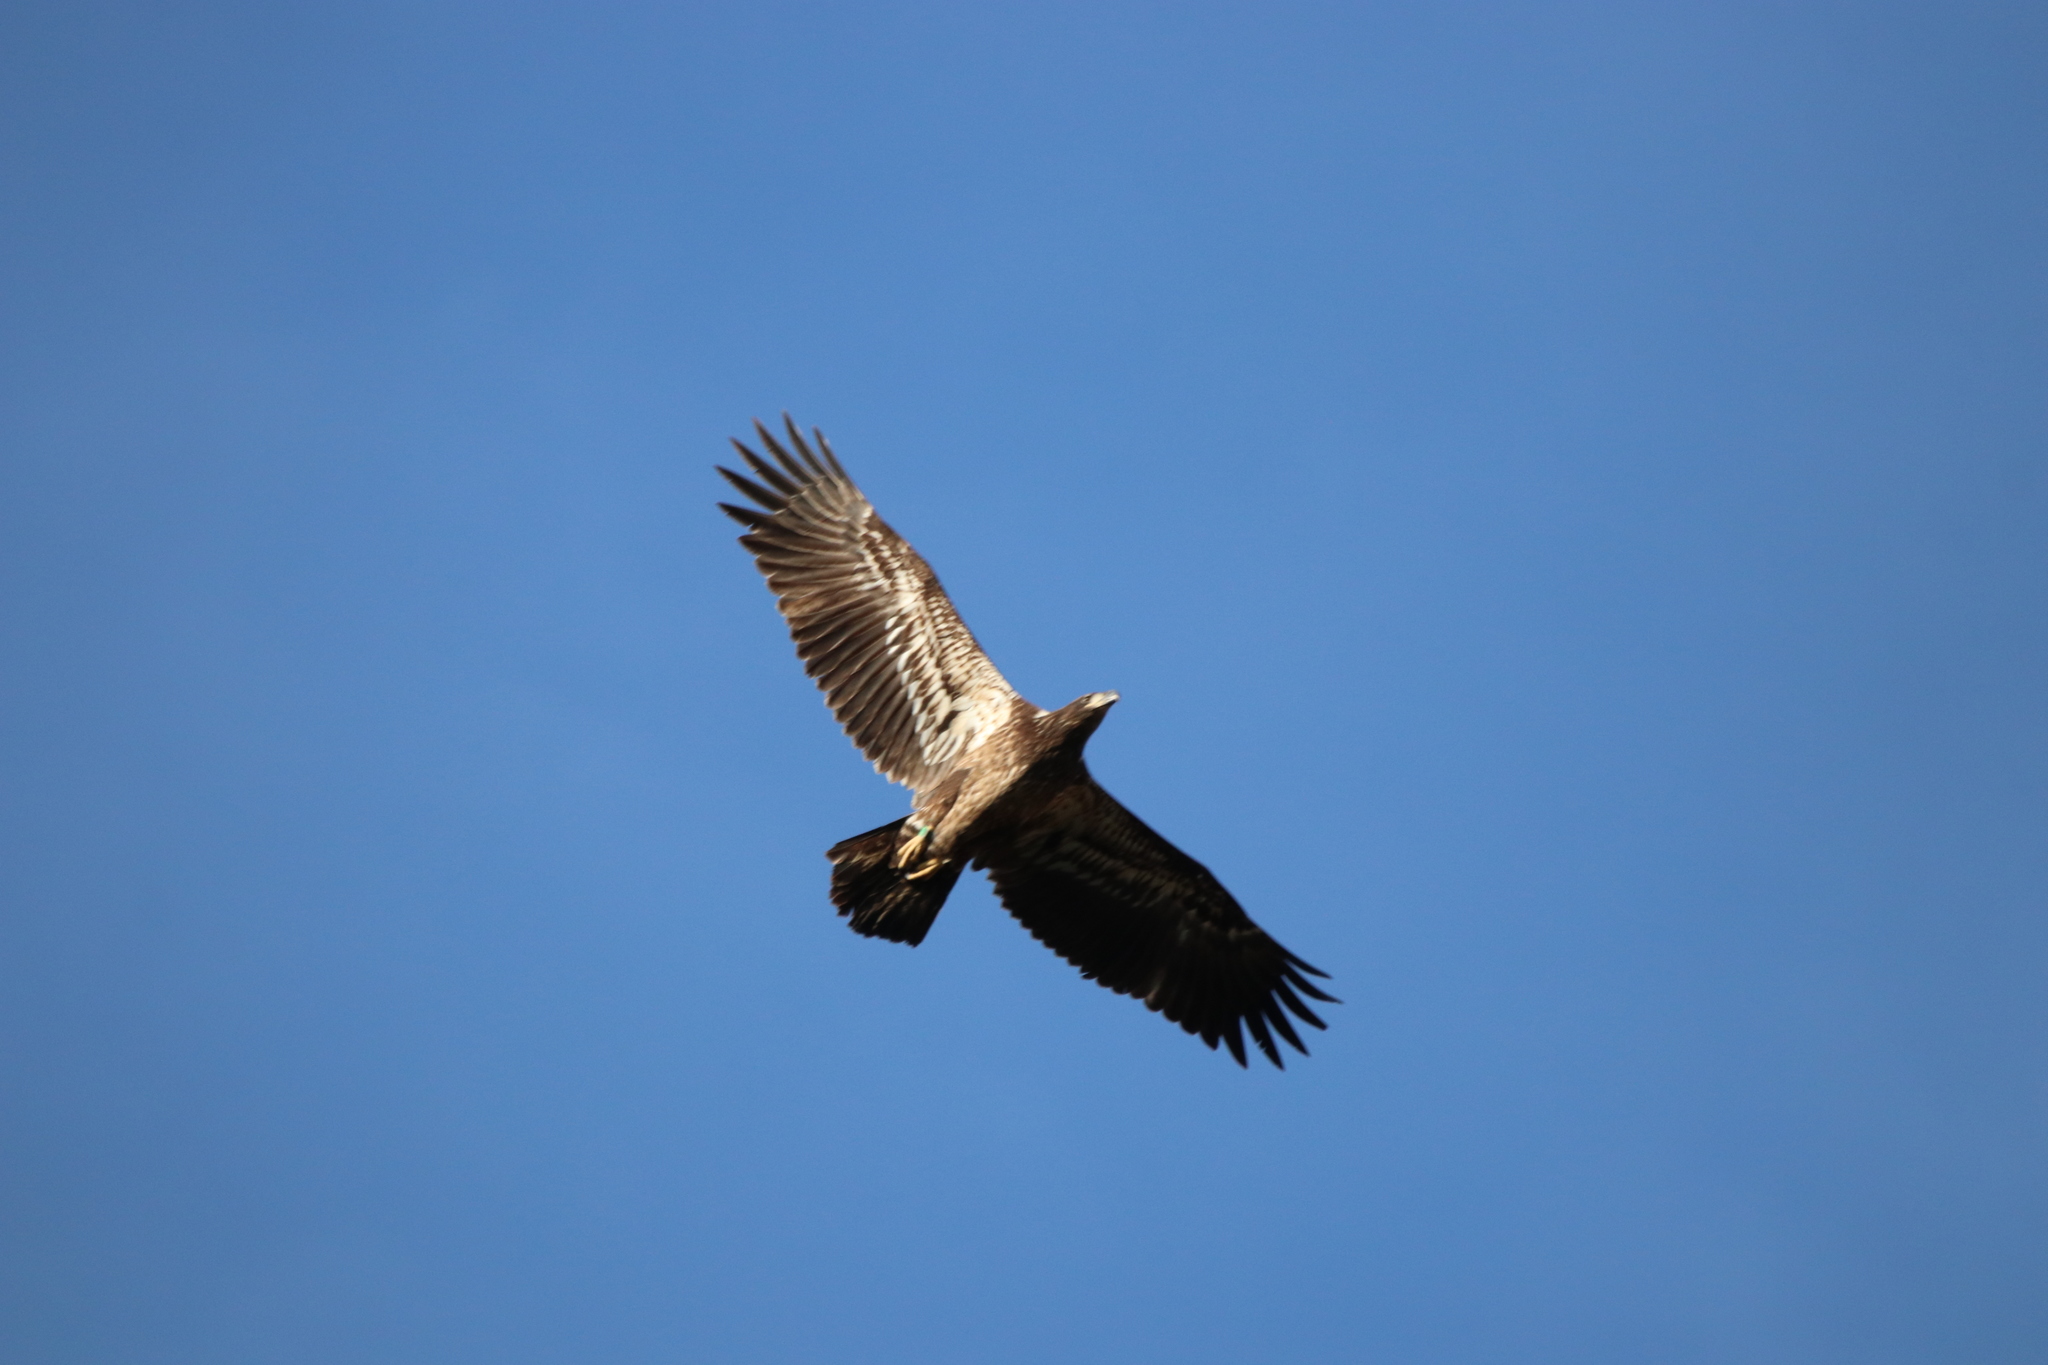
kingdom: Animalia
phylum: Chordata
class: Aves
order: Accipitriformes
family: Accipitridae
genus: Haliaeetus
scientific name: Haliaeetus leucocephalus
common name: Bald eagle
